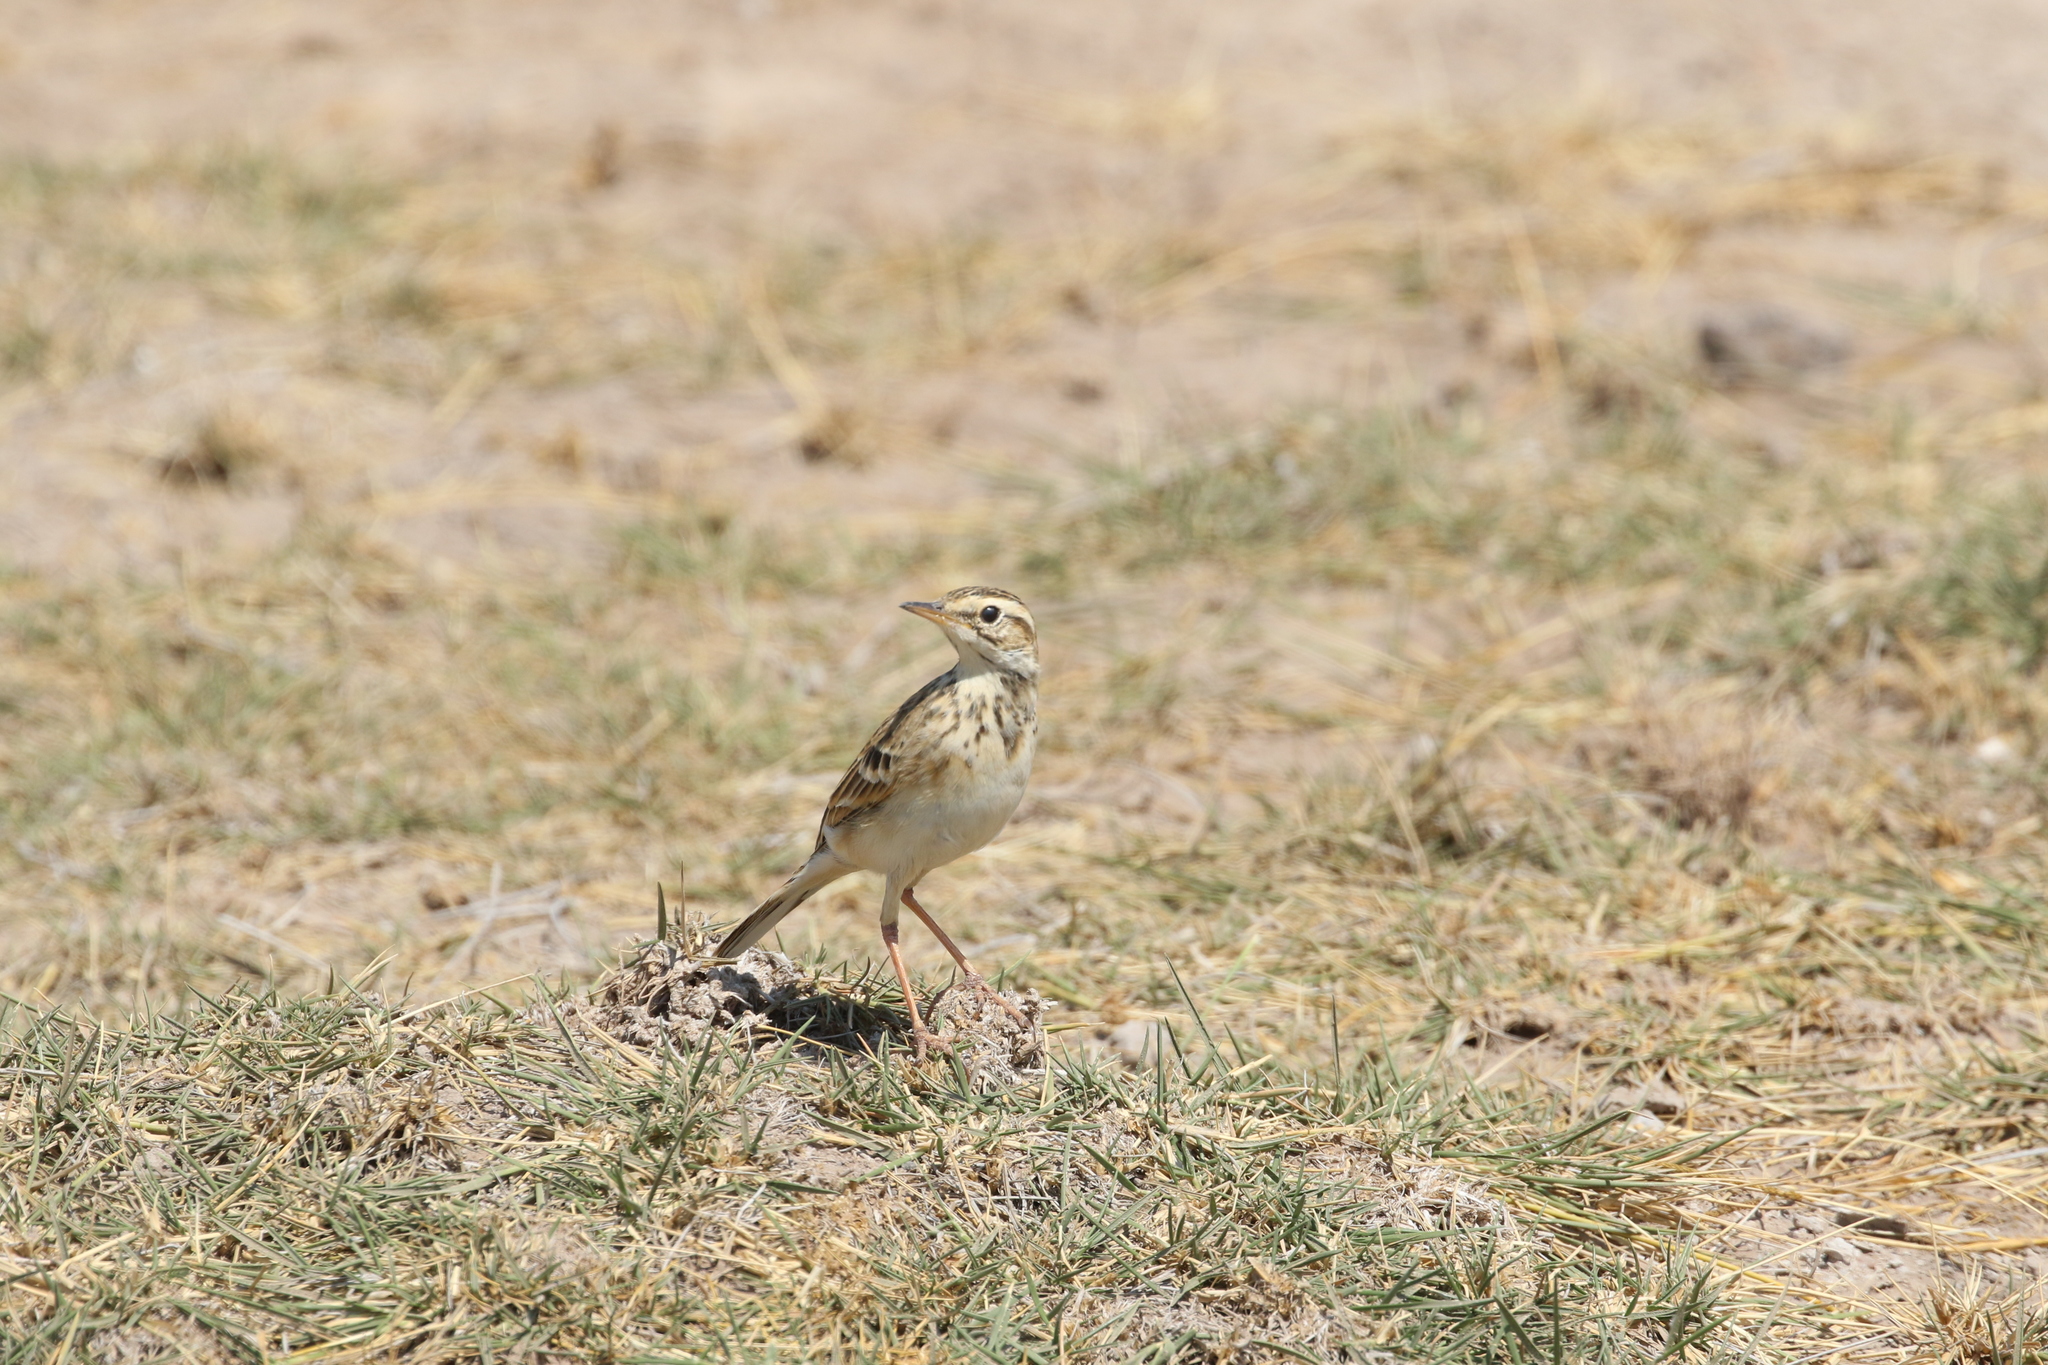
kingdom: Animalia
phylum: Chordata
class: Aves
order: Passeriformes
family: Motacillidae
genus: Anthus
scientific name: Anthus cinnamomeus
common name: African pipit
